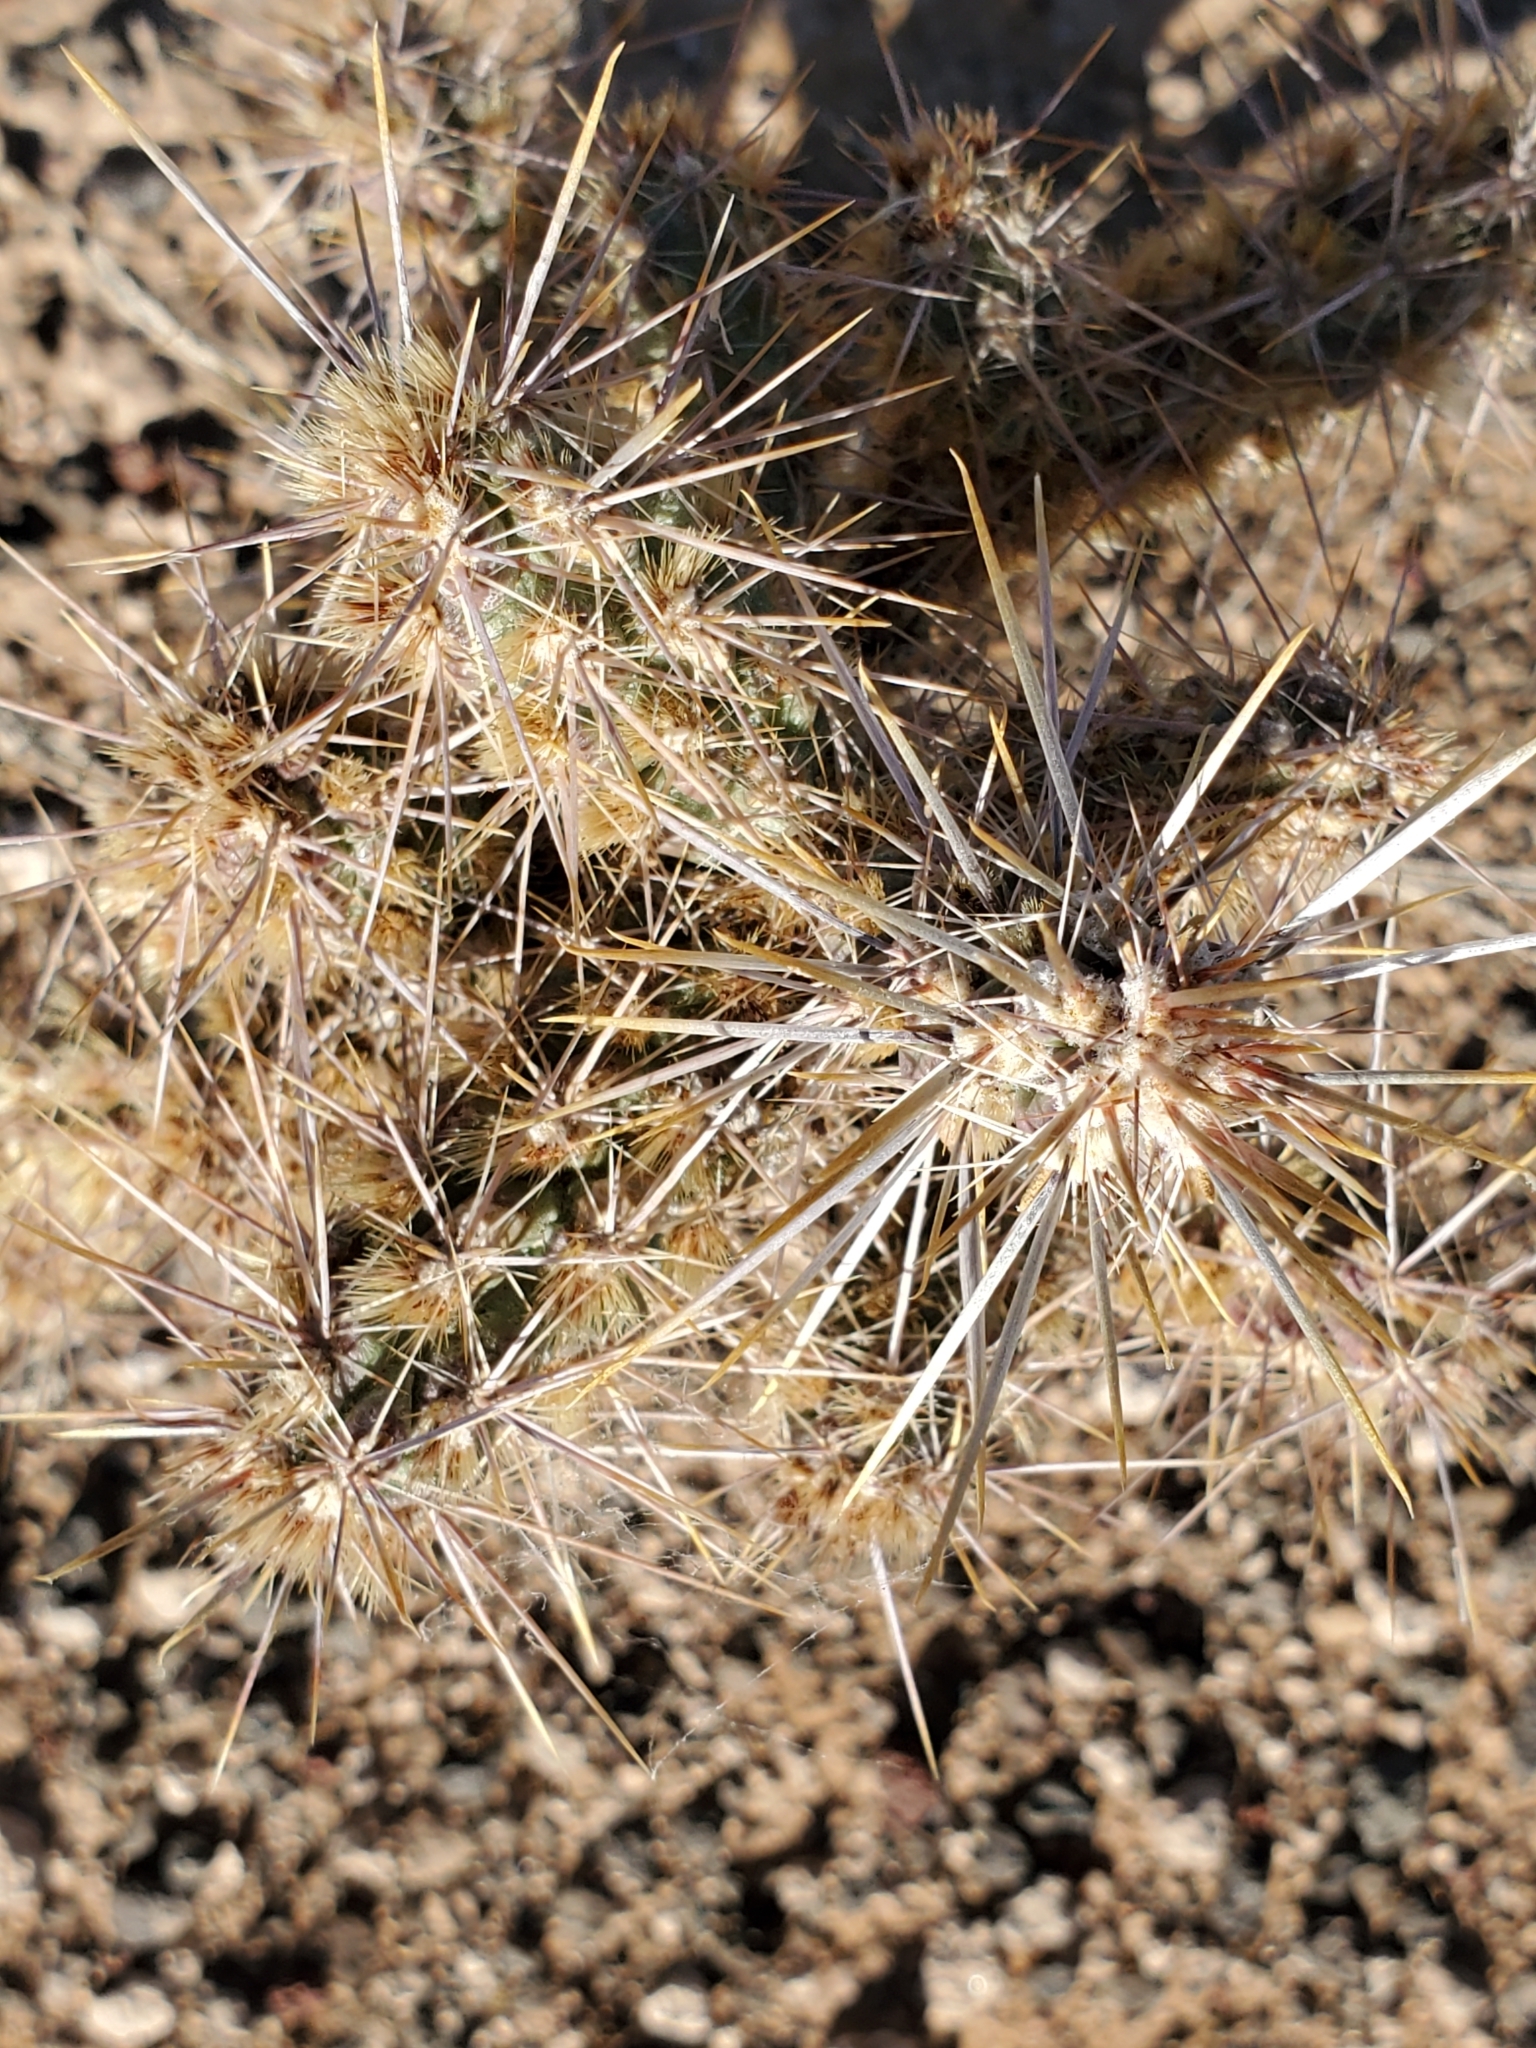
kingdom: Plantae
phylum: Tracheophyta
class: Magnoliopsida
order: Caryophyllales
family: Cactaceae
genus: Cylindropuntia
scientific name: Cylindropuntia echinocarpa
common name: Ground cholla
